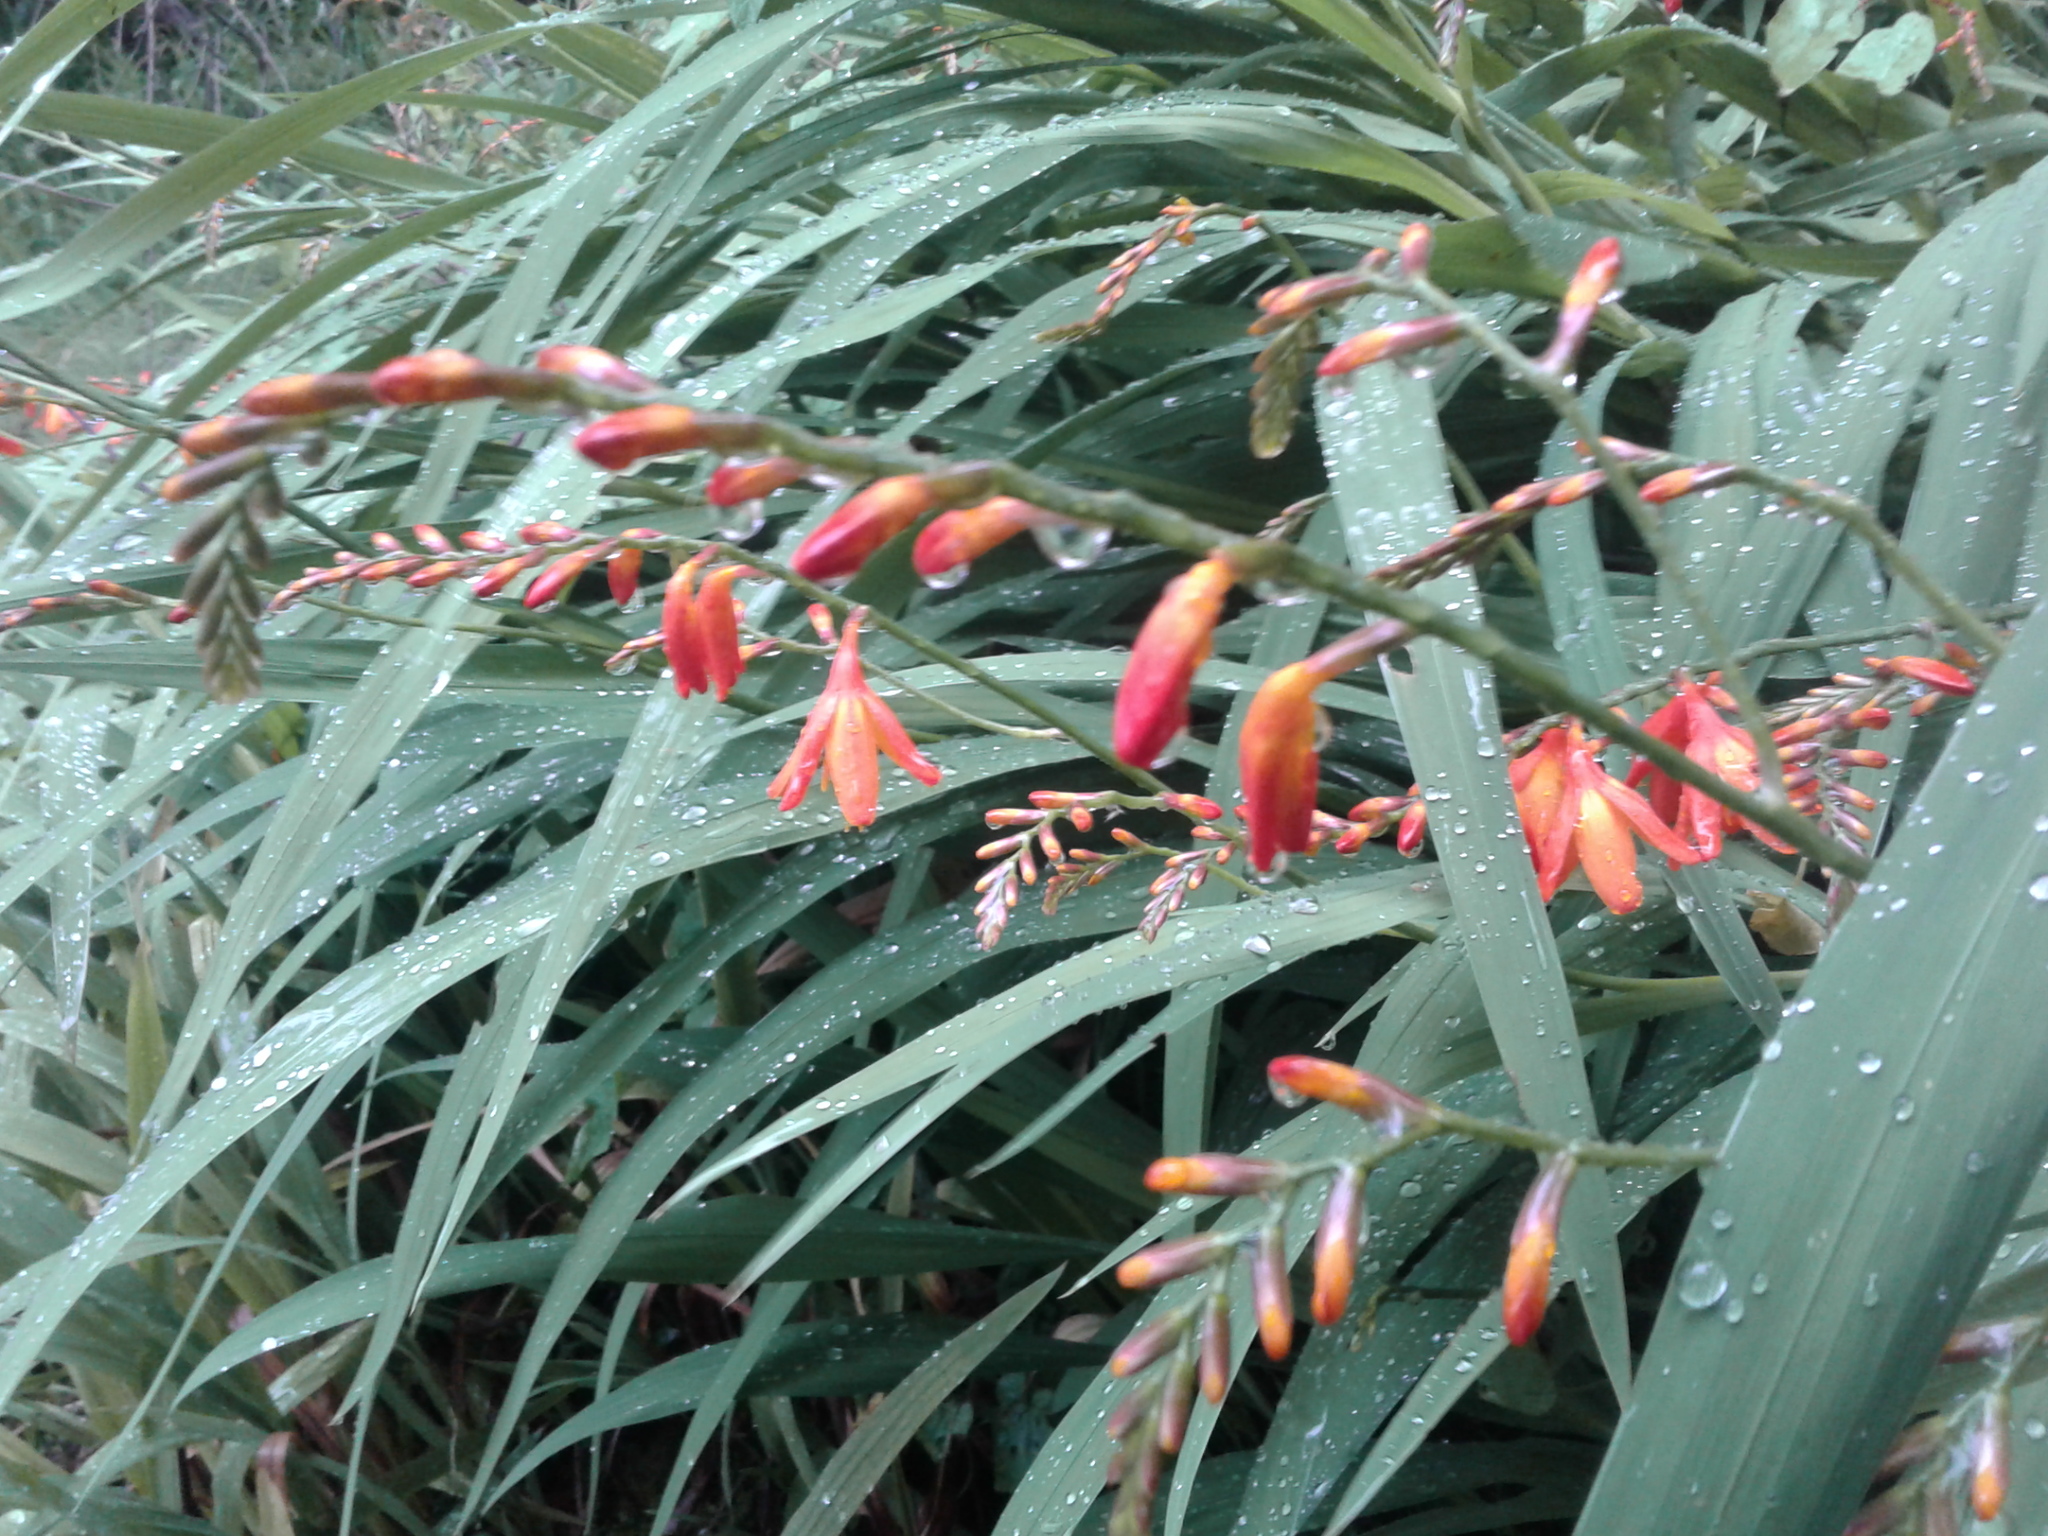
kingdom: Plantae
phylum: Tracheophyta
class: Liliopsida
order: Asparagales
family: Iridaceae
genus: Crocosmia
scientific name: Crocosmia crocosmiiflora
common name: Montbretia
